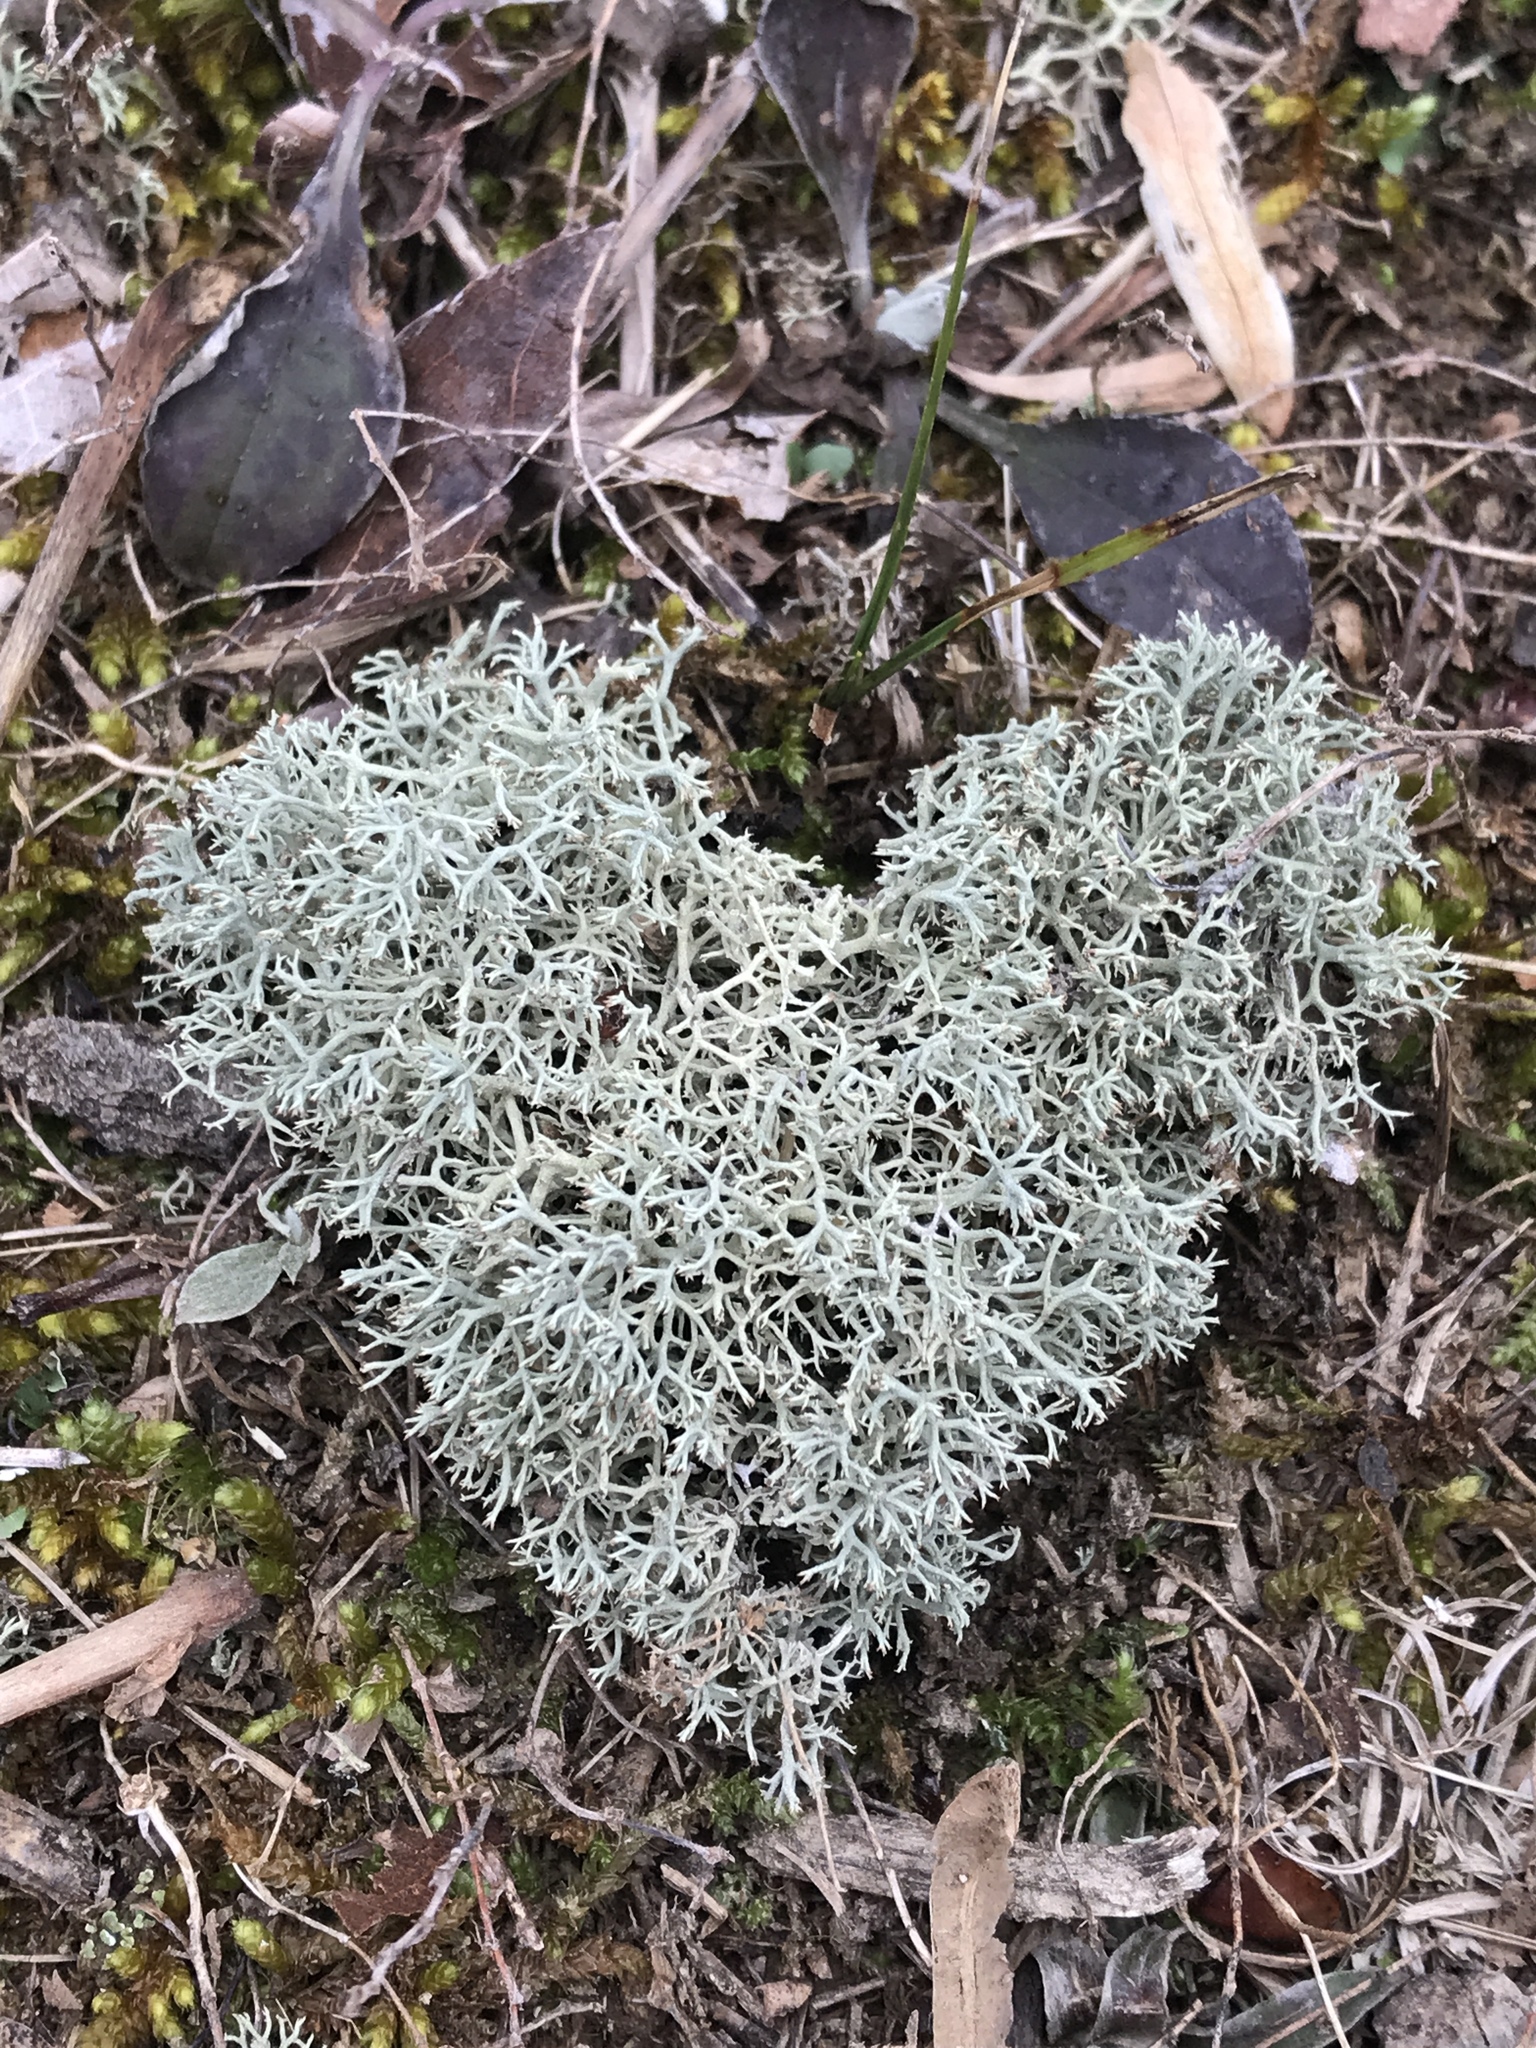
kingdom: Fungi
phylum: Ascomycota
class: Lecanoromycetes
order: Lecanorales
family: Cladoniaceae
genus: Cladonia
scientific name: Cladonia rangiferina
